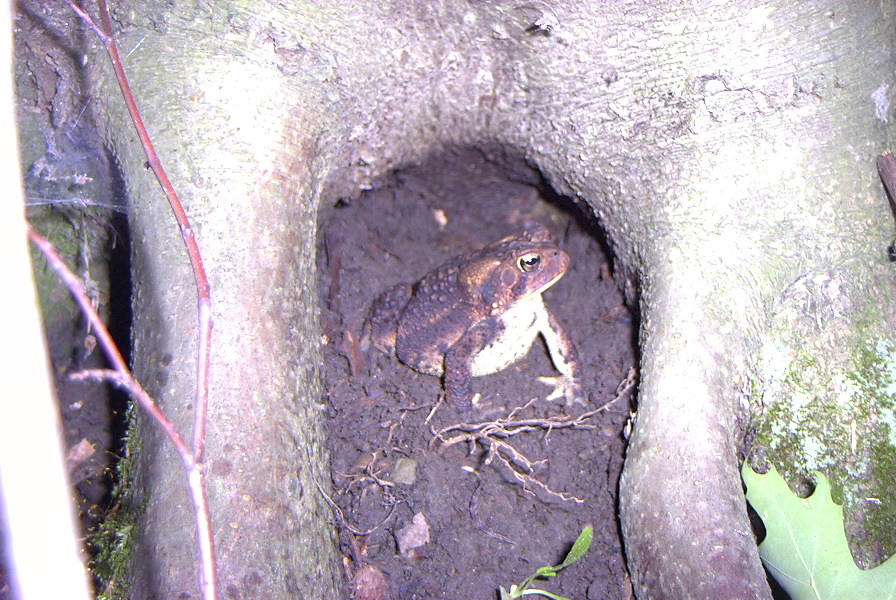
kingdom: Animalia
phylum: Chordata
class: Amphibia
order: Anura
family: Bufonidae
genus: Anaxyrus
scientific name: Anaxyrus americanus
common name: American toad
